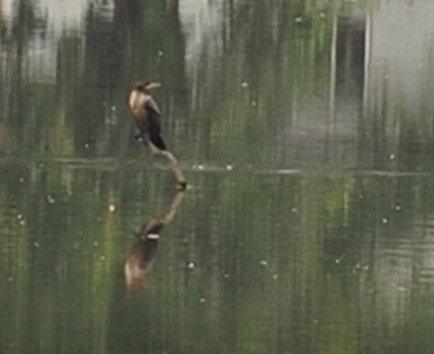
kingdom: Animalia
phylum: Chordata
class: Aves
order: Suliformes
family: Phalacrocoracidae
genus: Phalacrocorax
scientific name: Phalacrocorax auritus
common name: Double-crested cormorant
